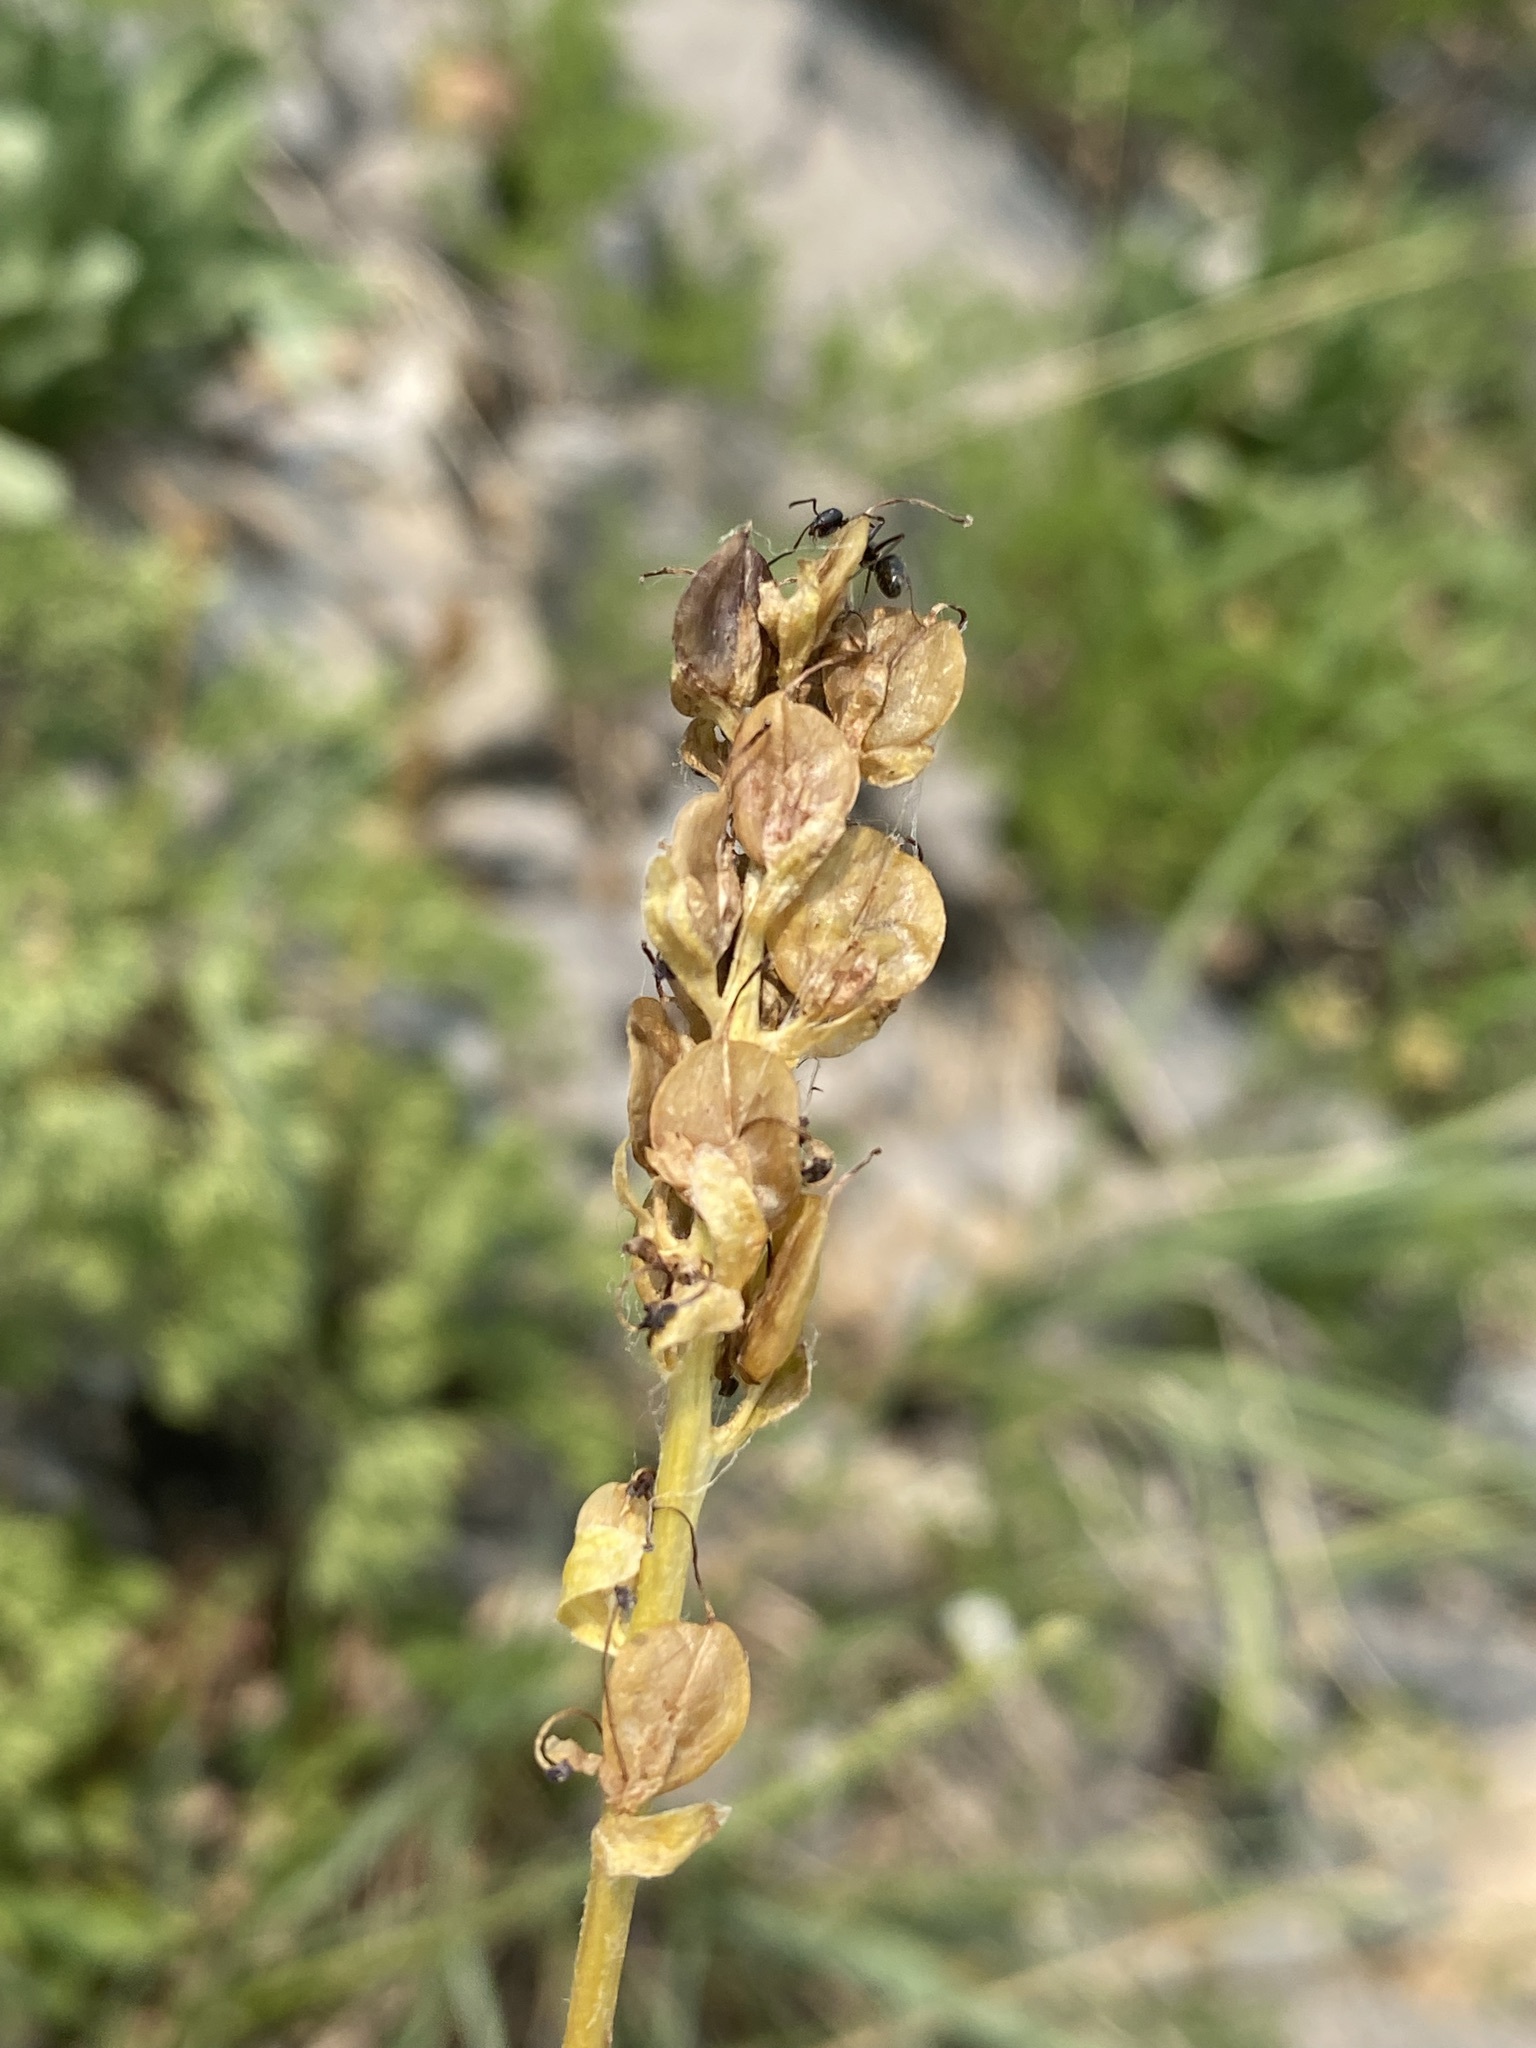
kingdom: Plantae
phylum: Tracheophyta
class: Magnoliopsida
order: Lamiales
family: Plantaginaceae
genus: Synthyris
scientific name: Synthyris pinnatifida
